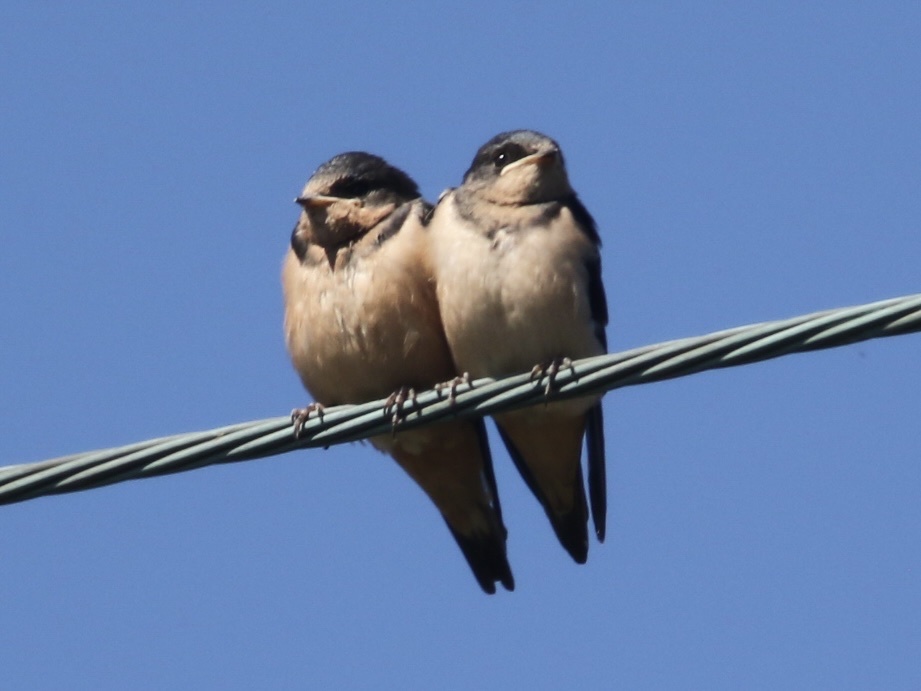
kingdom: Animalia
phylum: Chordata
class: Aves
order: Passeriformes
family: Hirundinidae
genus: Hirundo
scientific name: Hirundo rustica
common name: Barn swallow
